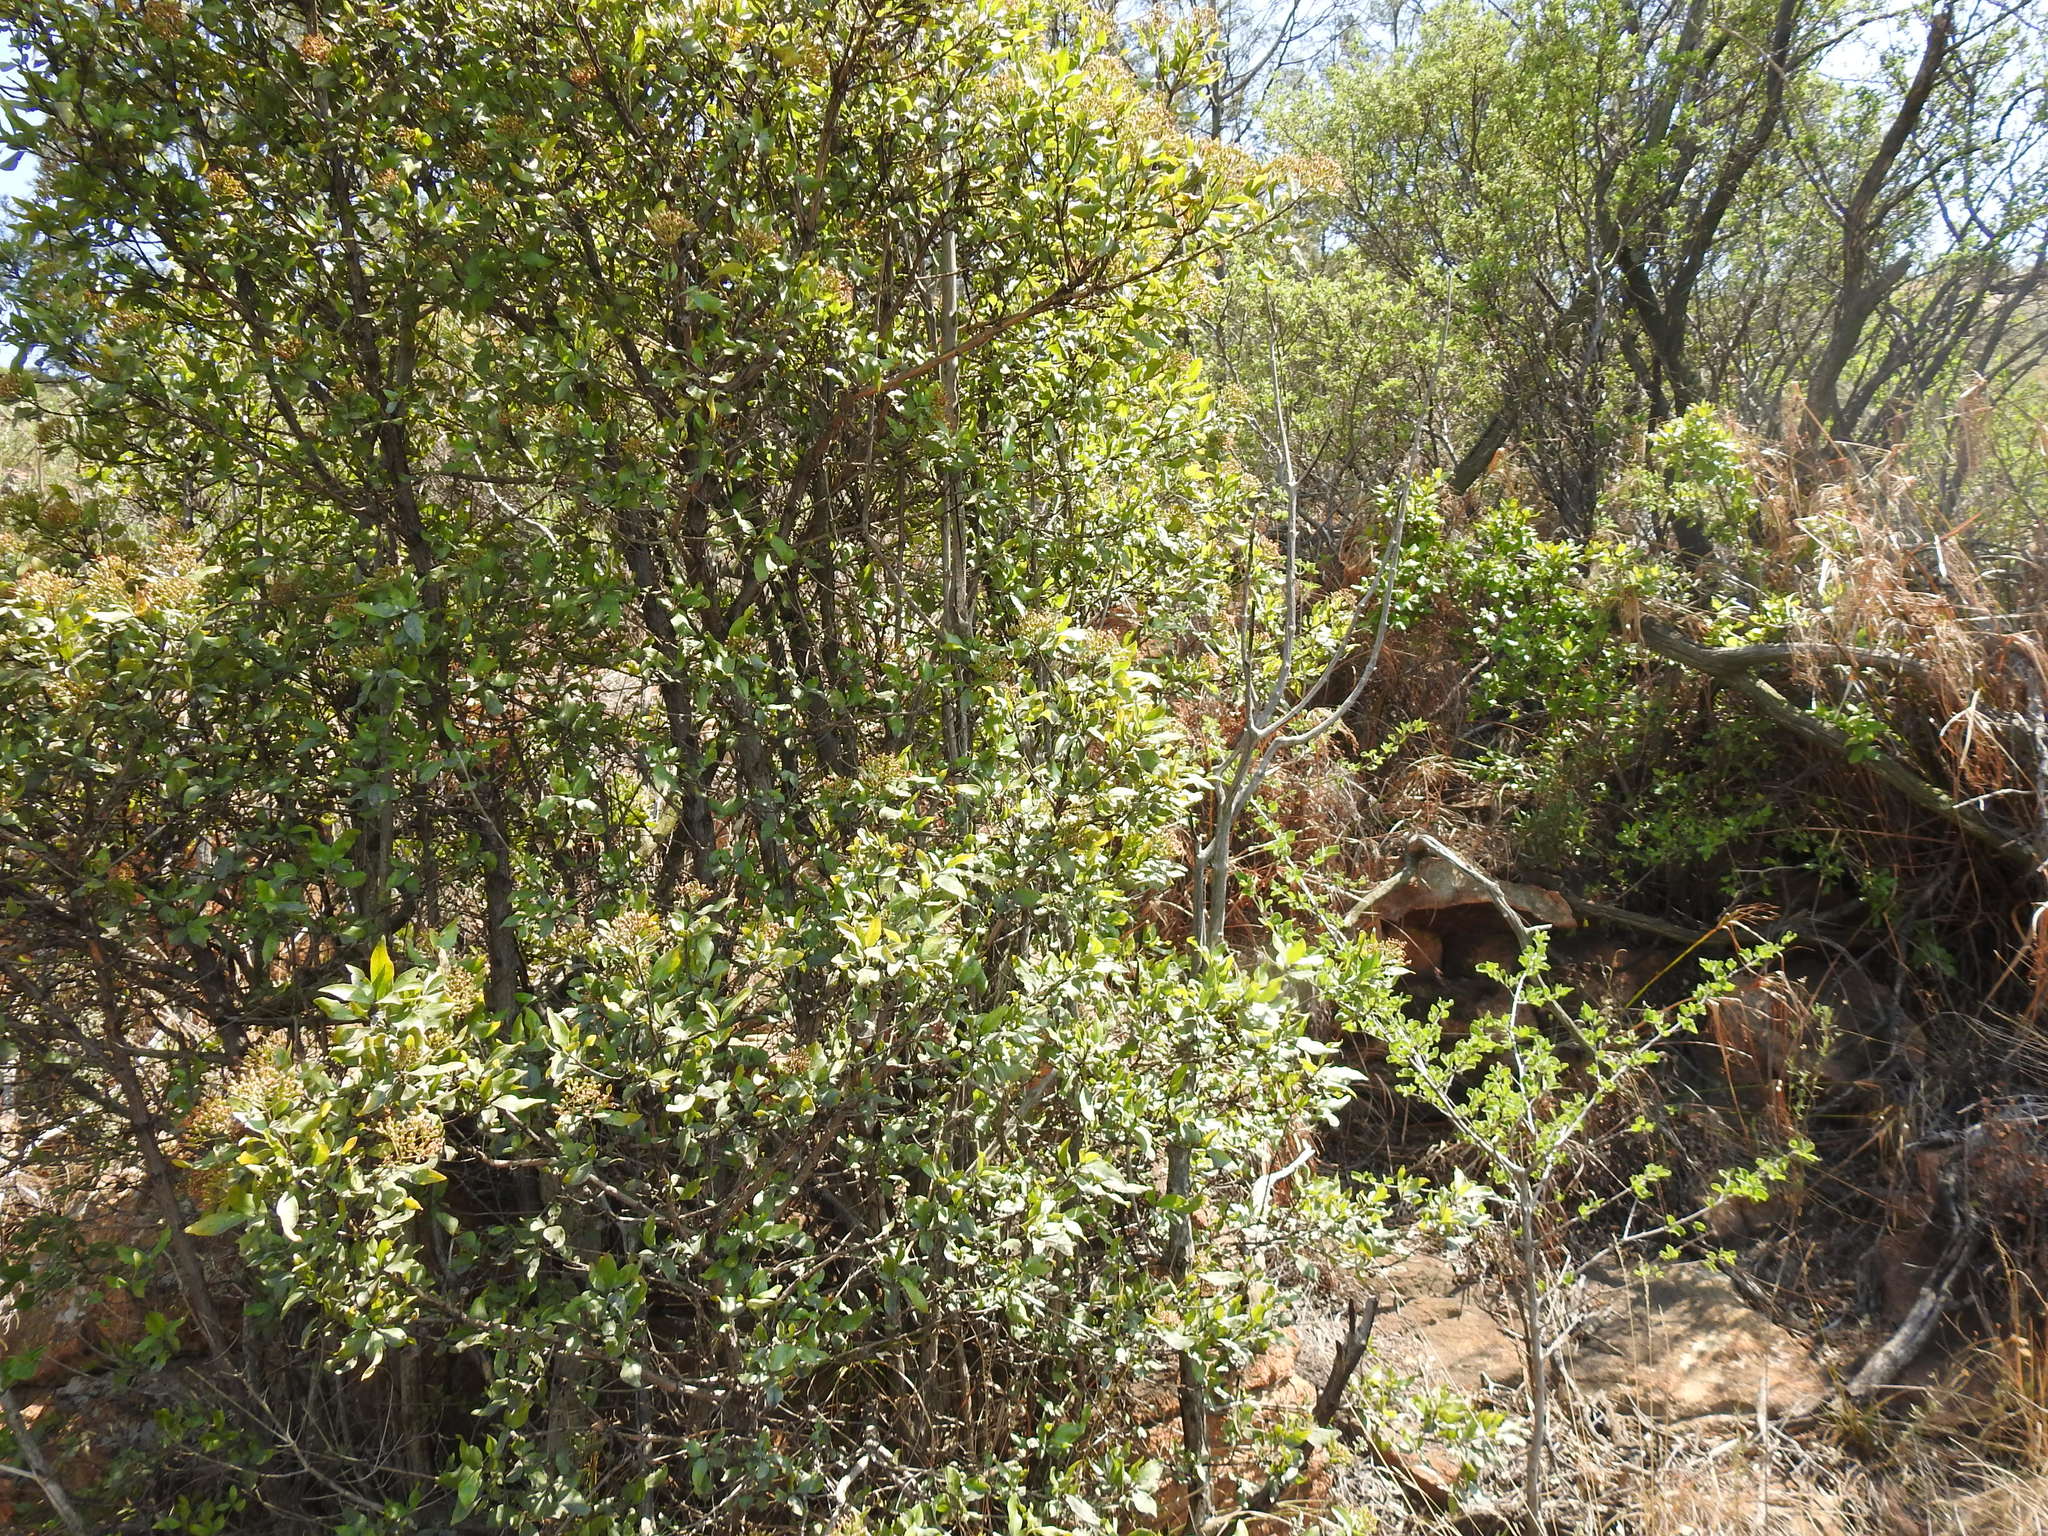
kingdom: Plantae
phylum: Tracheophyta
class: Magnoliopsida
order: Lamiales
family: Stilbaceae
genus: Nuxia
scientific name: Nuxia congesta
